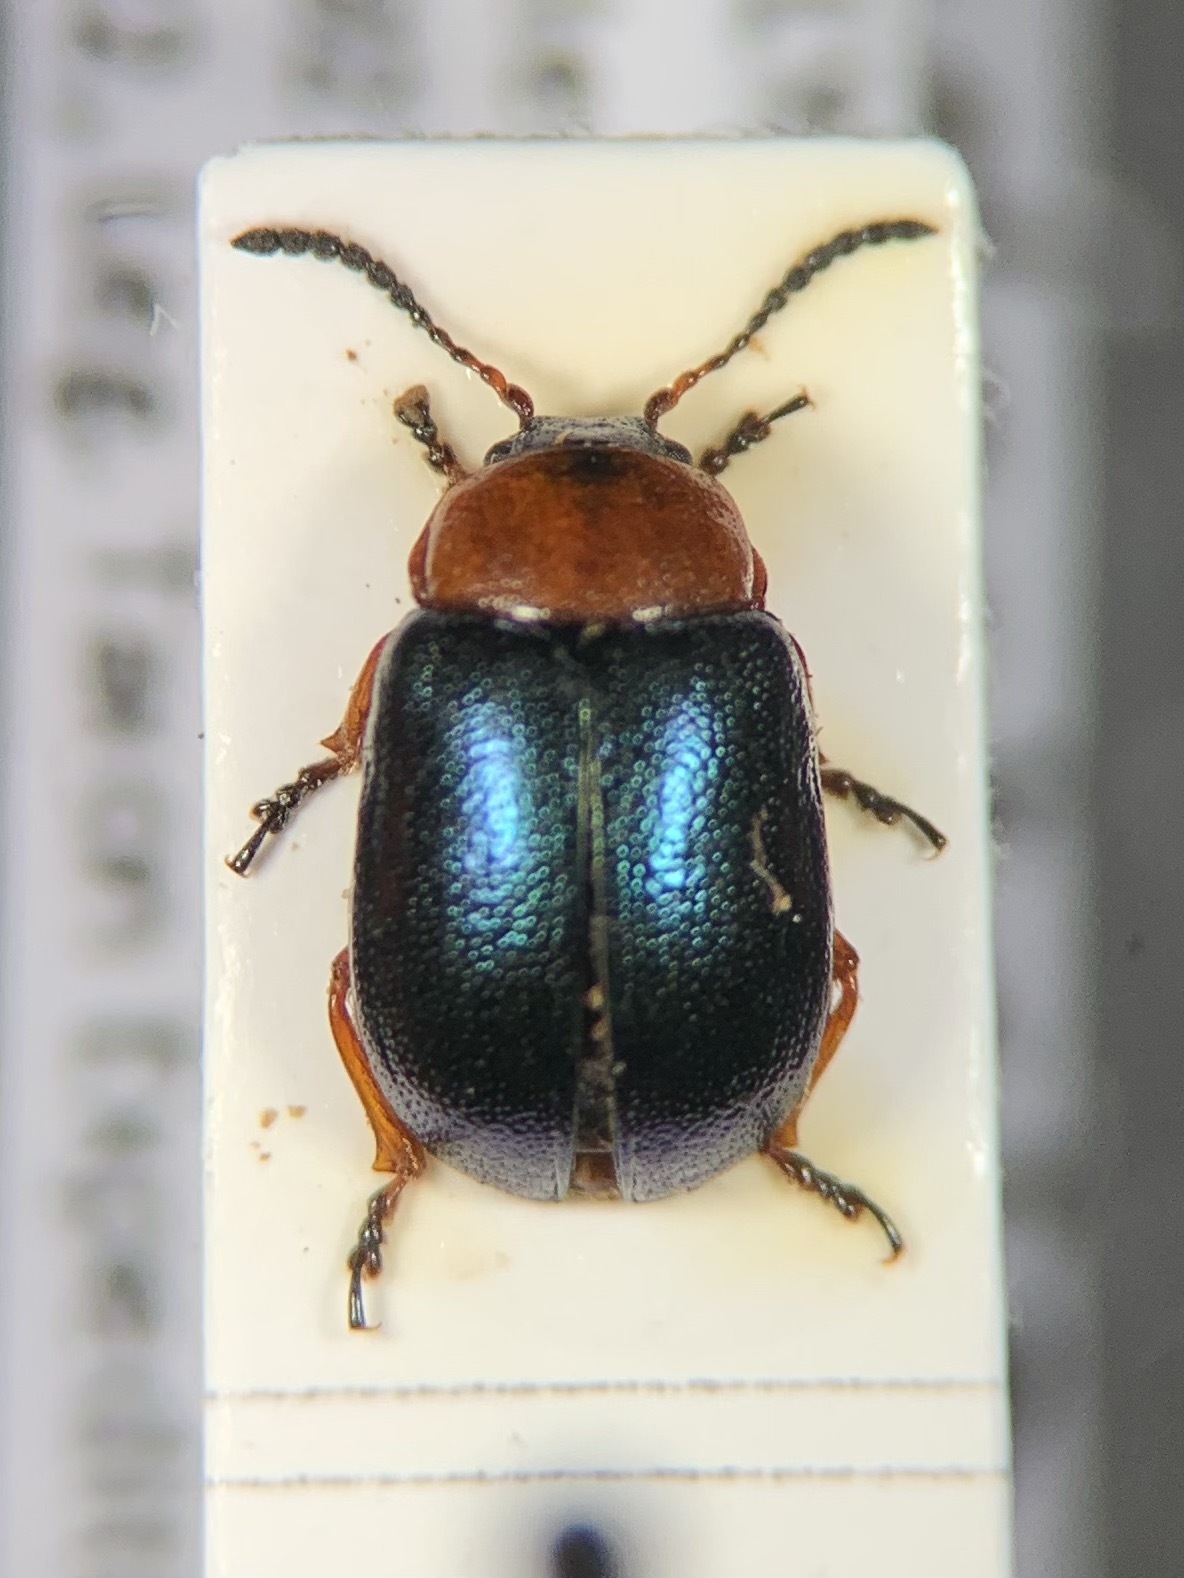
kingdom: Animalia
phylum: Arthropoda
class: Insecta
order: Coleoptera
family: Chrysomelidae
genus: Gastrophysa
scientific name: Gastrophysa polygoni
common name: Knotweed leaf beetle
